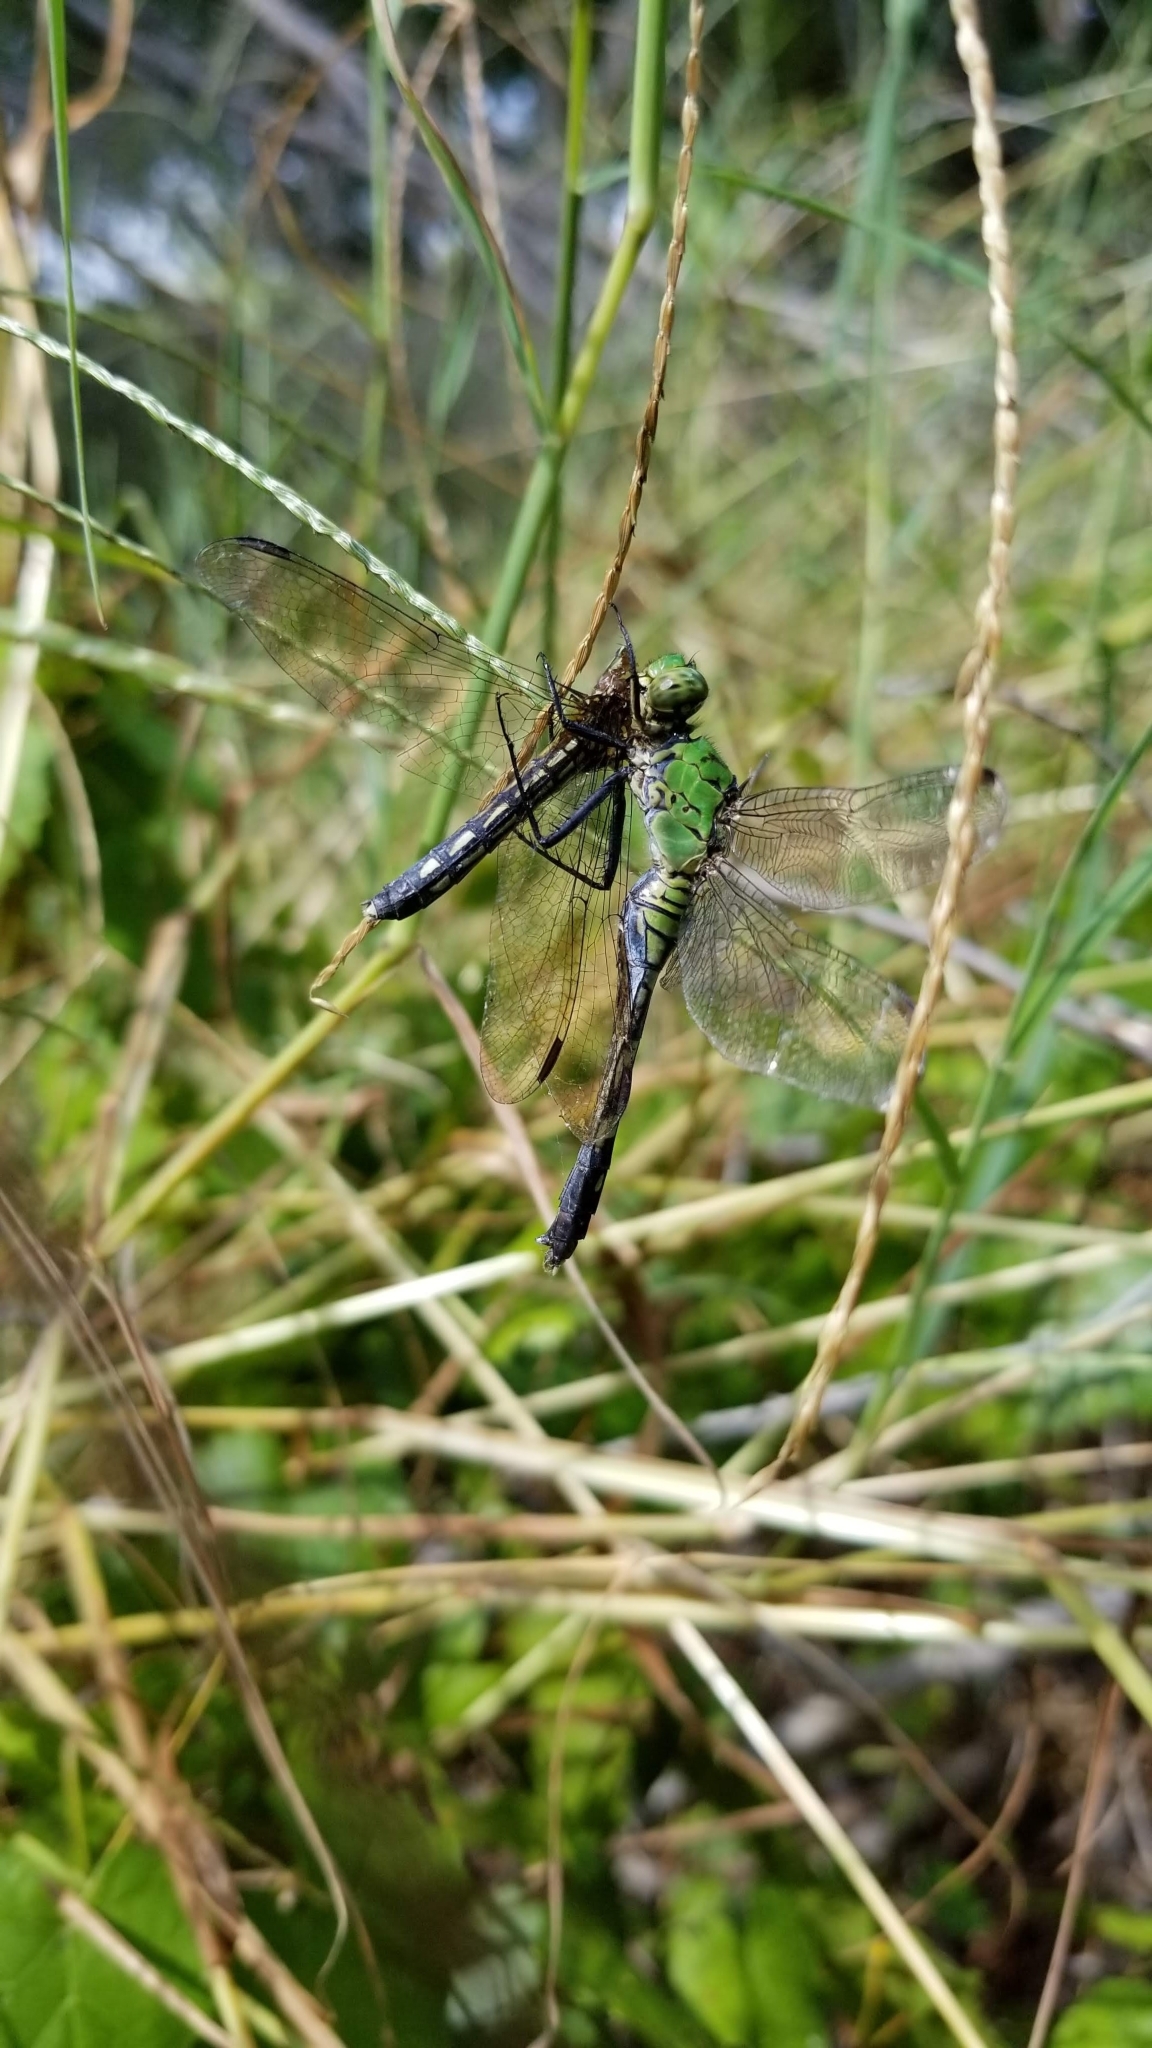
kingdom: Animalia
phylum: Arthropoda
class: Insecta
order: Odonata
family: Libellulidae
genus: Erythemis
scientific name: Erythemis simplicicollis
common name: Eastern pondhawk
